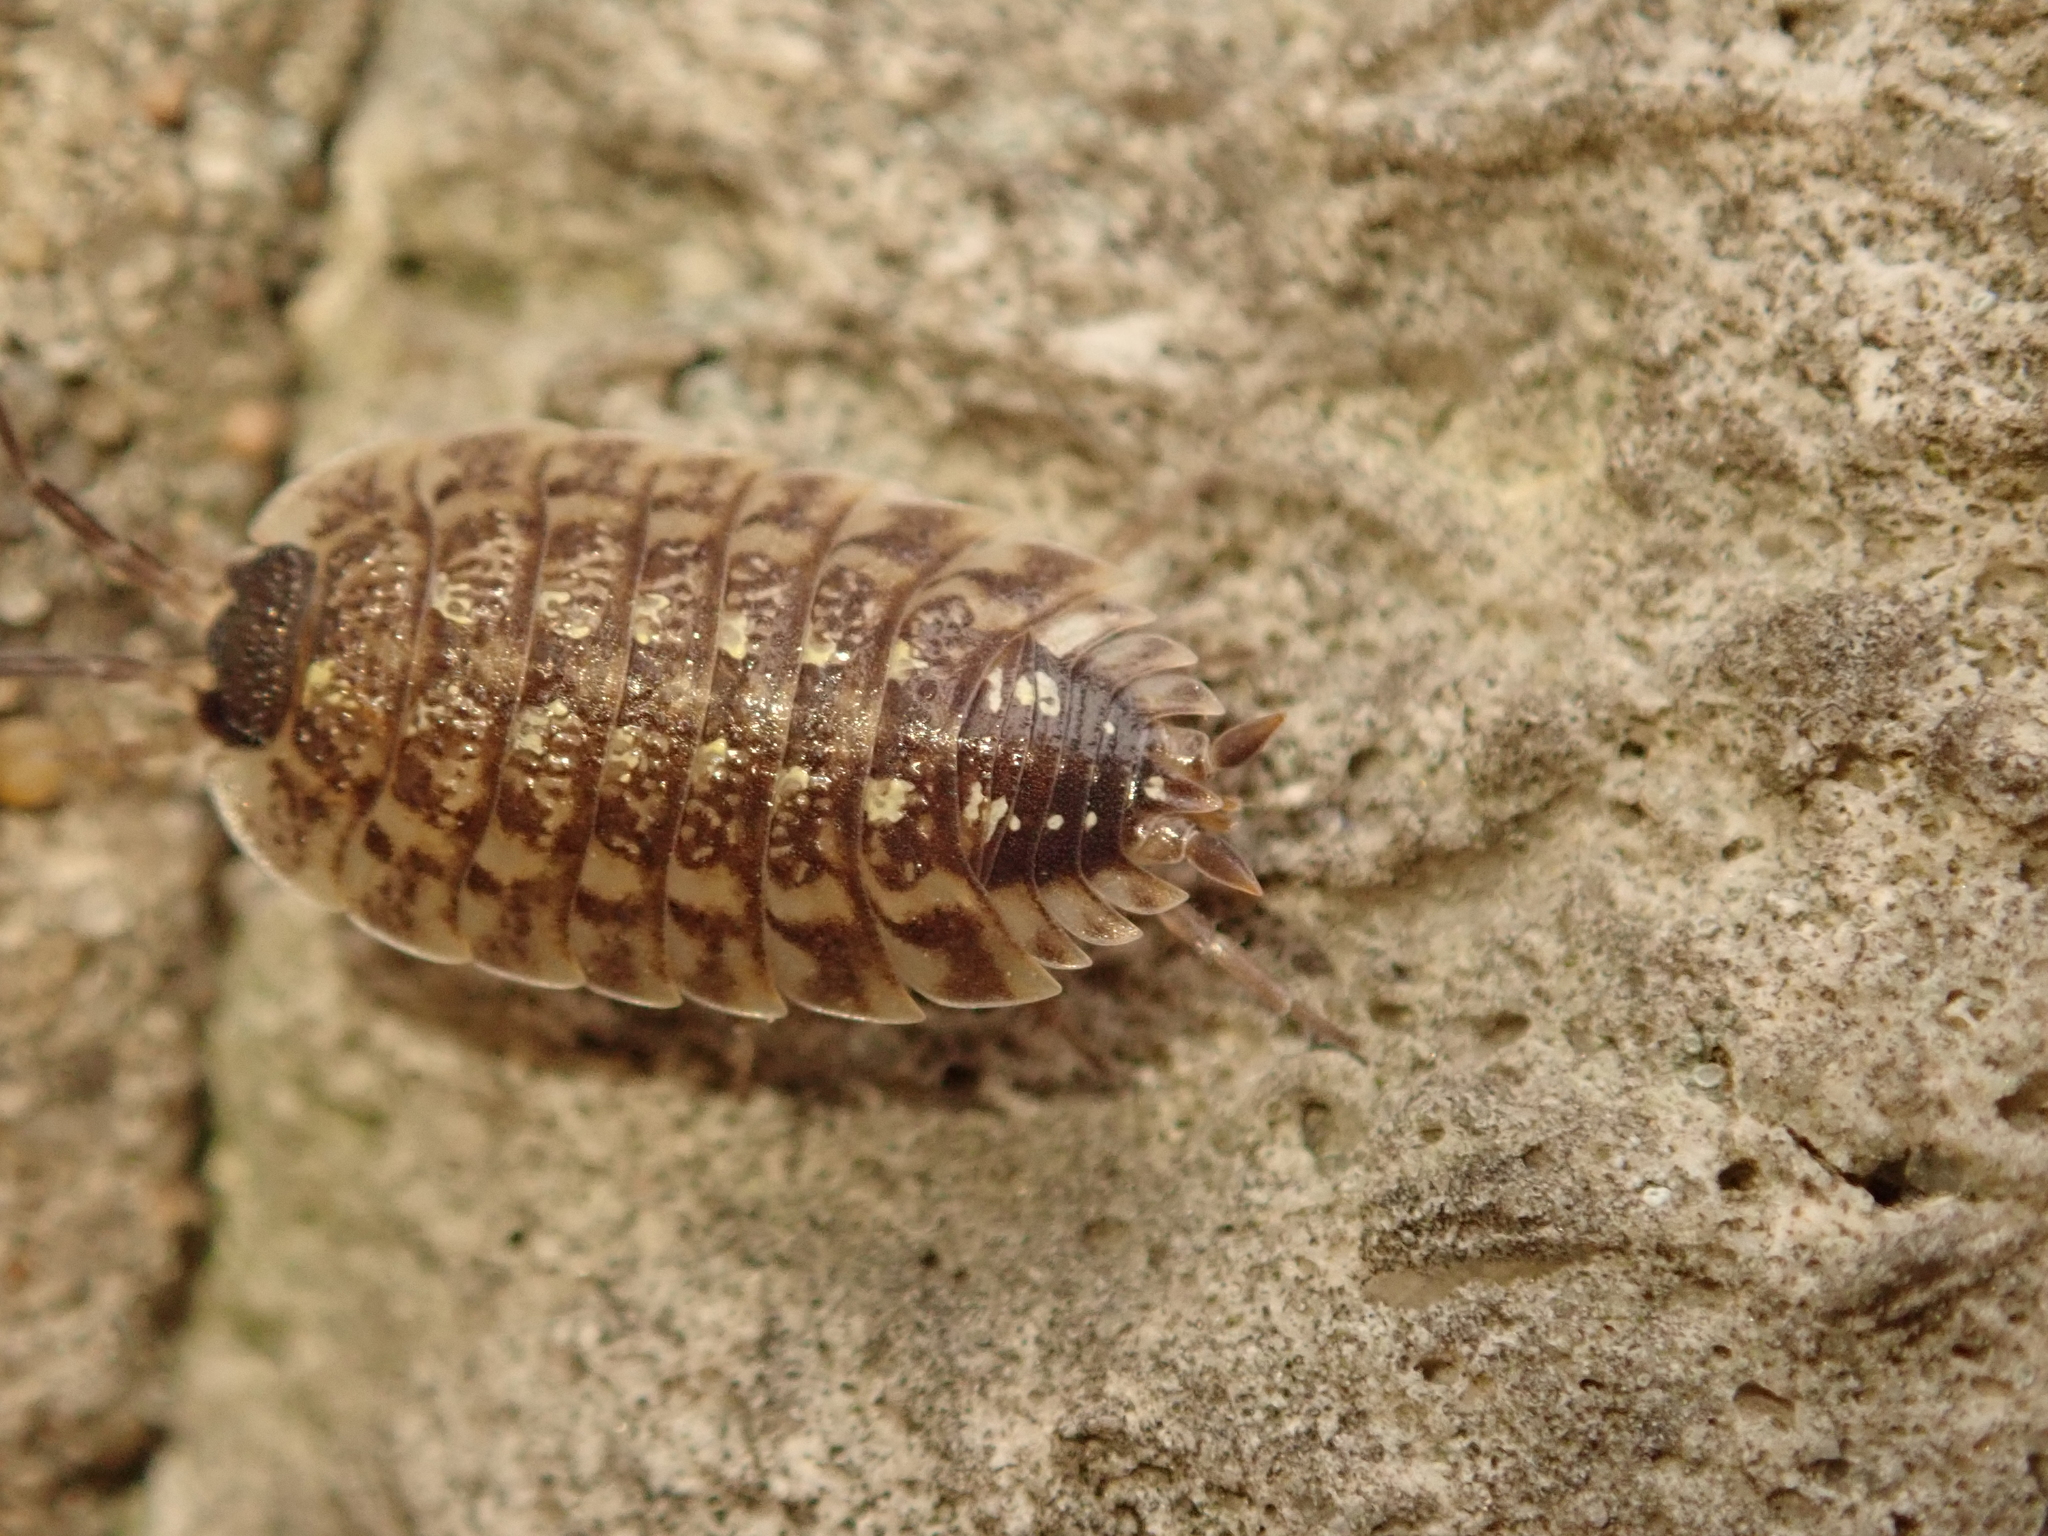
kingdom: Animalia
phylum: Arthropoda
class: Malacostraca
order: Isopoda
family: Porcellionidae
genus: Porcellio
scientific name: Porcellio spinicornis
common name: Painted woodlouse
